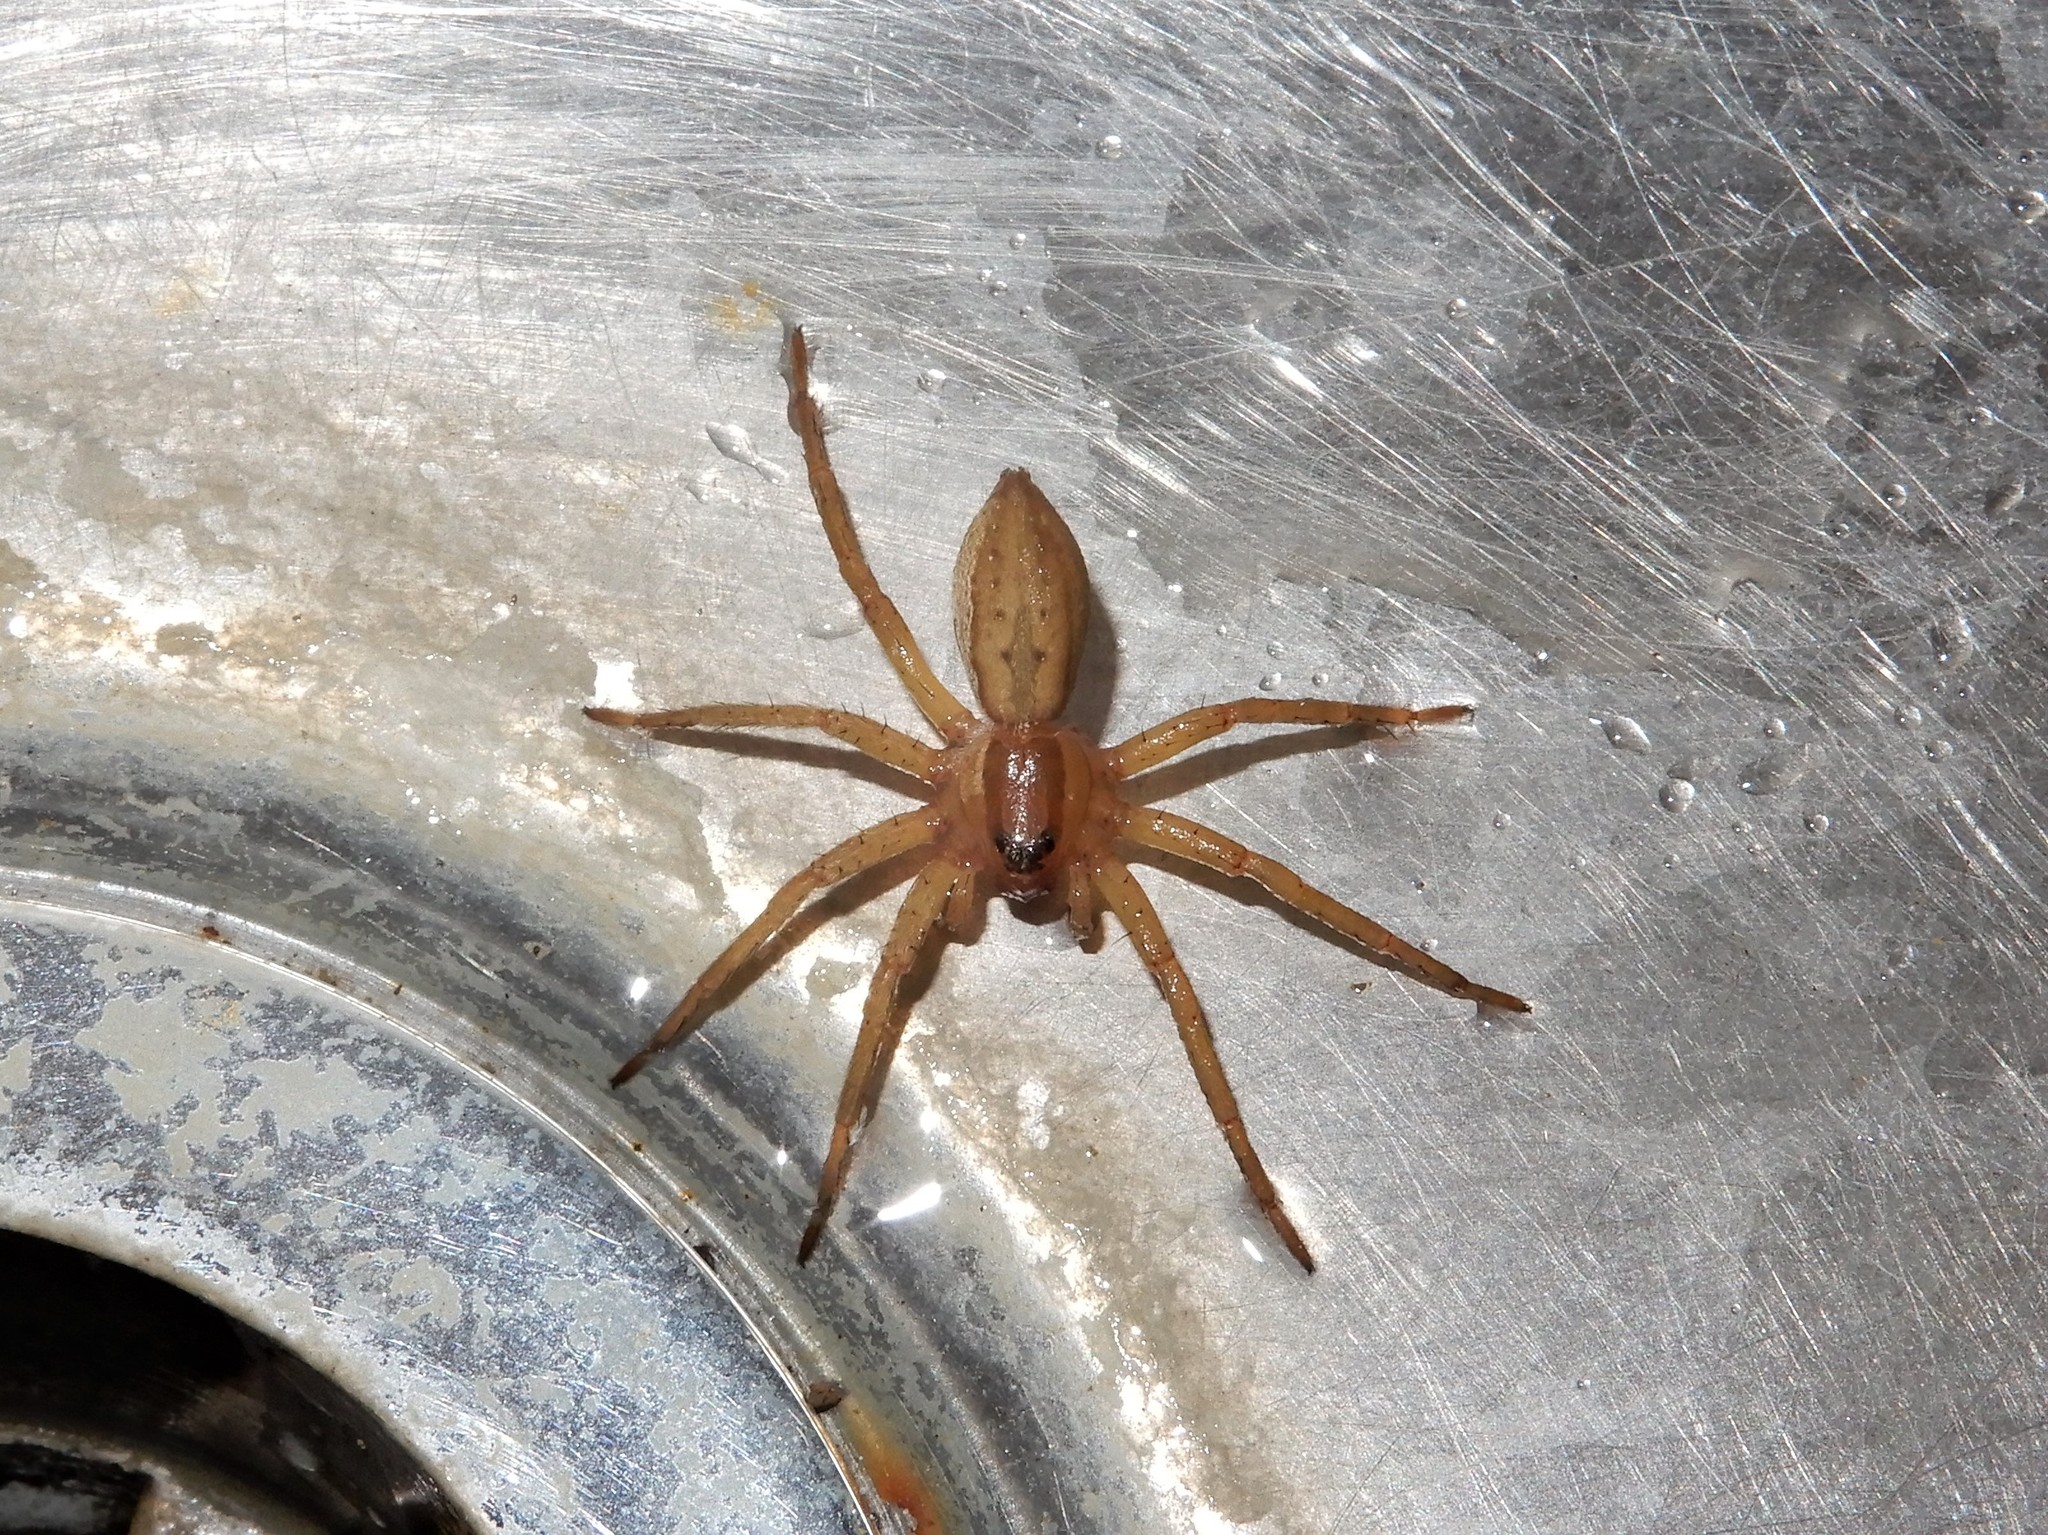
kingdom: Animalia
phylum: Arthropoda
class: Arachnida
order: Araneae
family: Pisauridae
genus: Dolomedes
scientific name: Dolomedes minor
